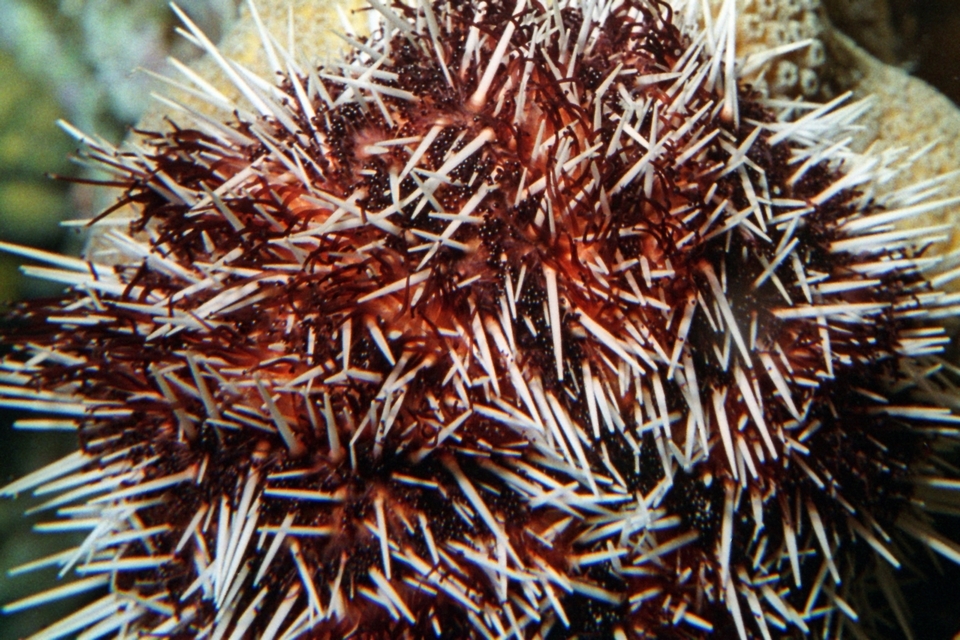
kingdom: Animalia
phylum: Echinodermata
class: Echinoidea
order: Camarodonta
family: Toxopneustidae
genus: Tripneustes
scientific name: Tripneustes ventricosus
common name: West indian sea egg
